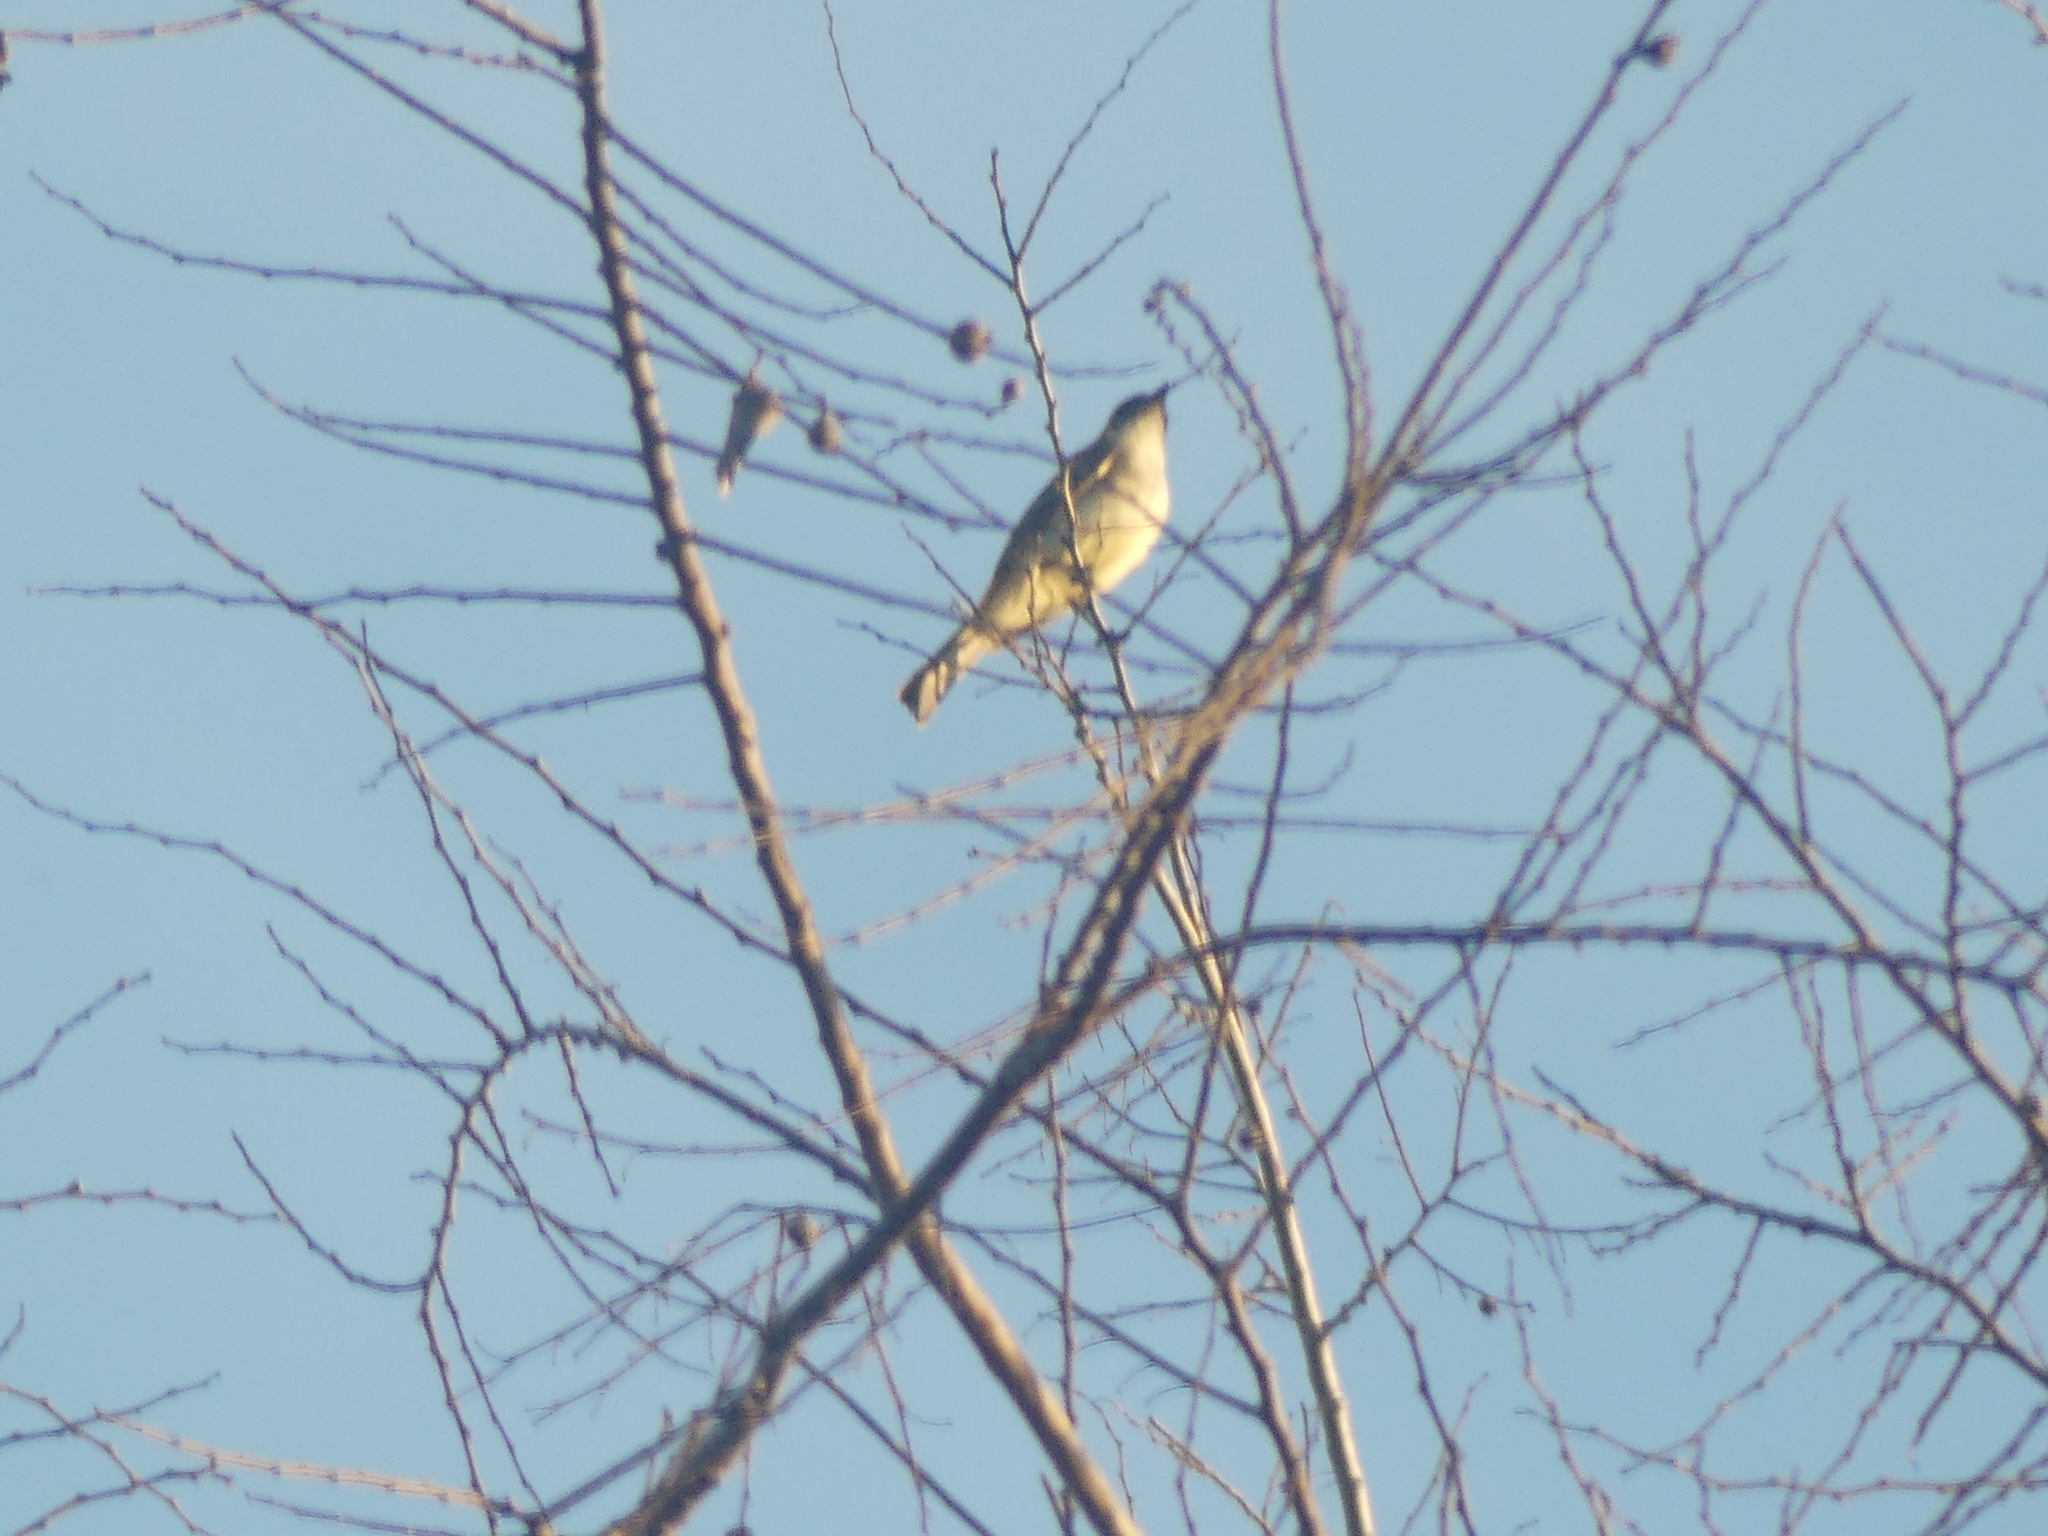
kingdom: Animalia
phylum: Chordata
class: Aves
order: Passeriformes
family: Tyrannidae
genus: Sayornis
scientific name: Sayornis phoebe
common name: Eastern phoebe
